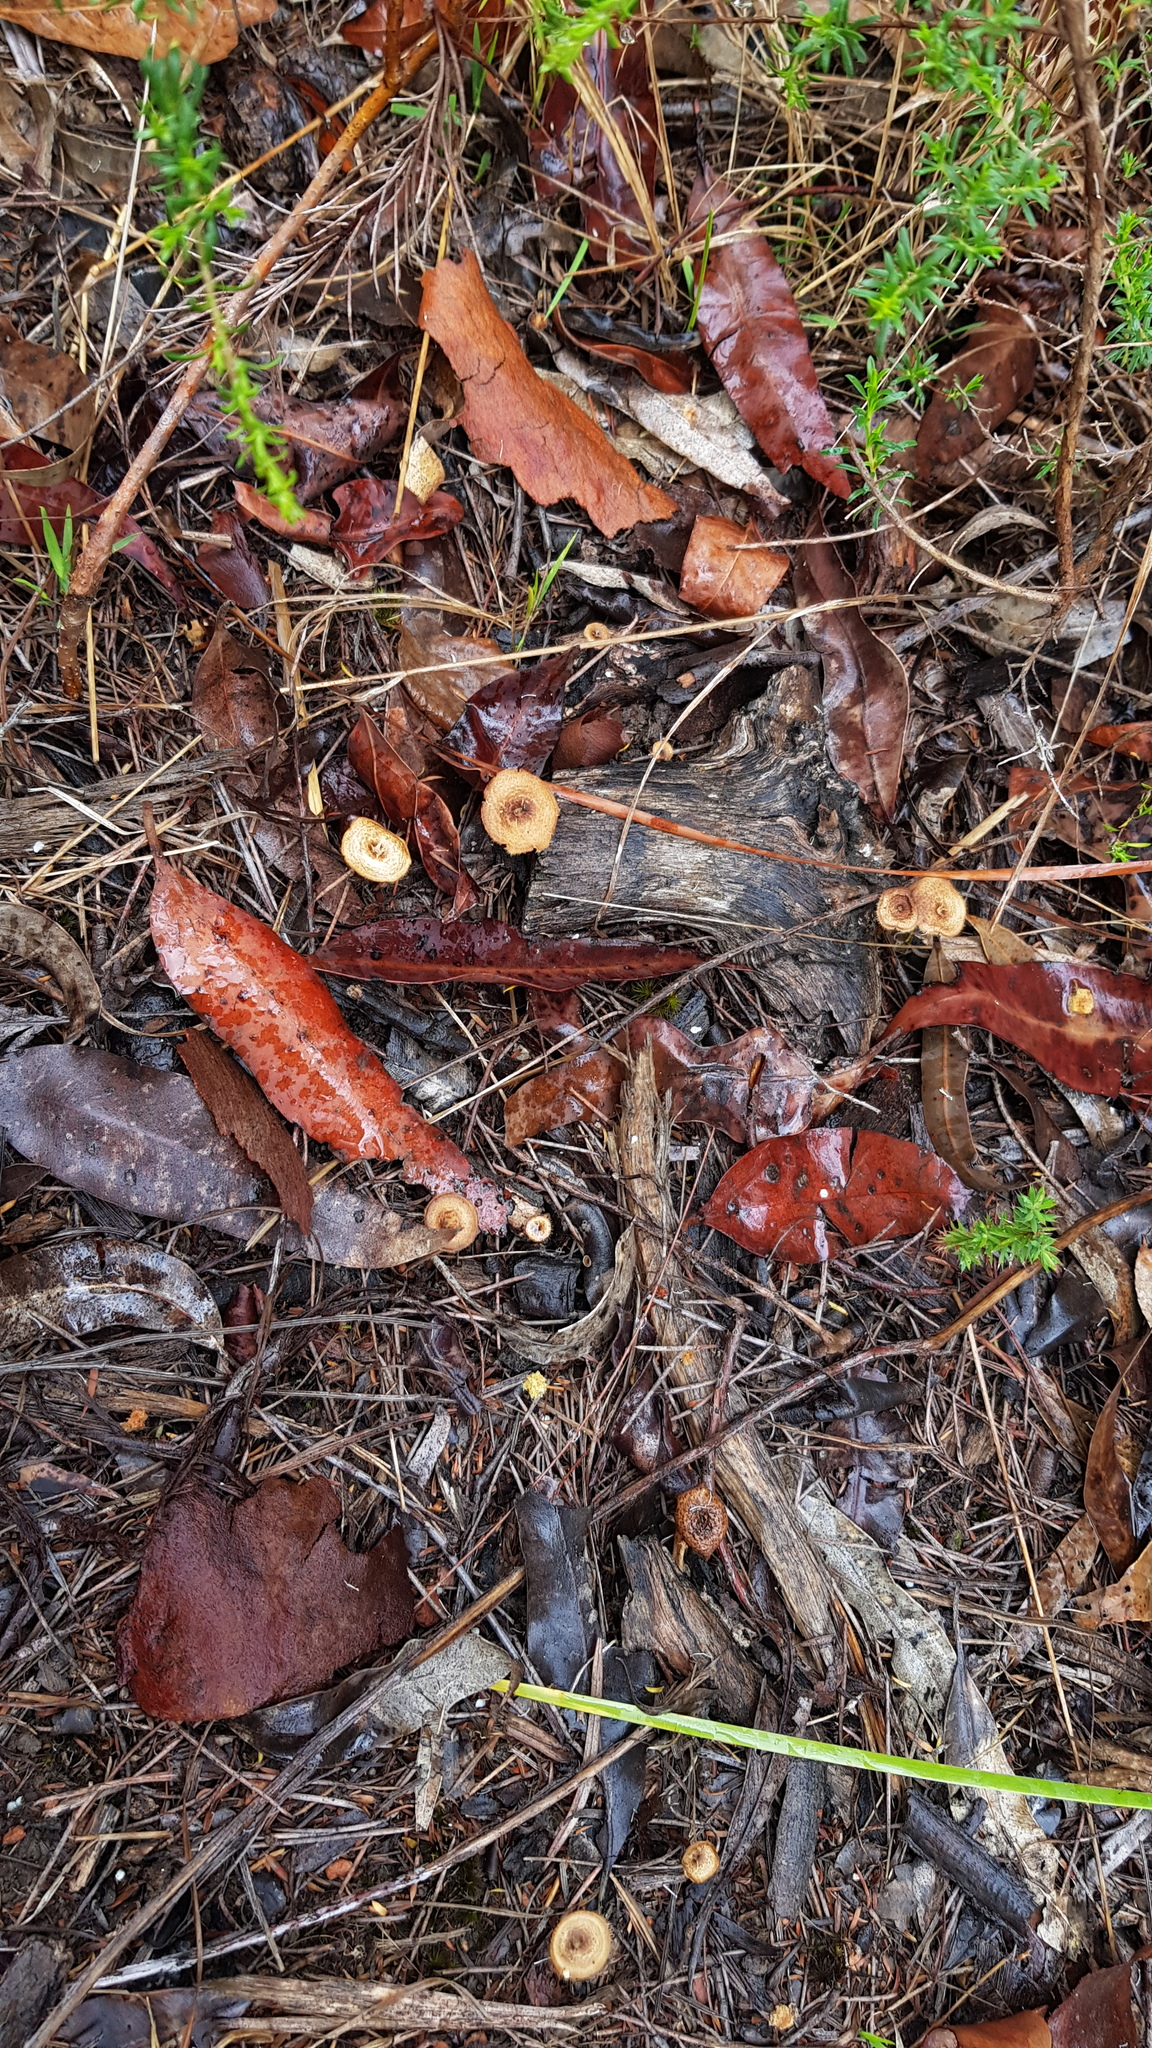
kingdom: Fungi
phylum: Basidiomycota
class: Agaricomycetes
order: Polyporales
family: Polyporaceae
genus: Lentinus
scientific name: Lentinus arcularius
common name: Spring polypore
